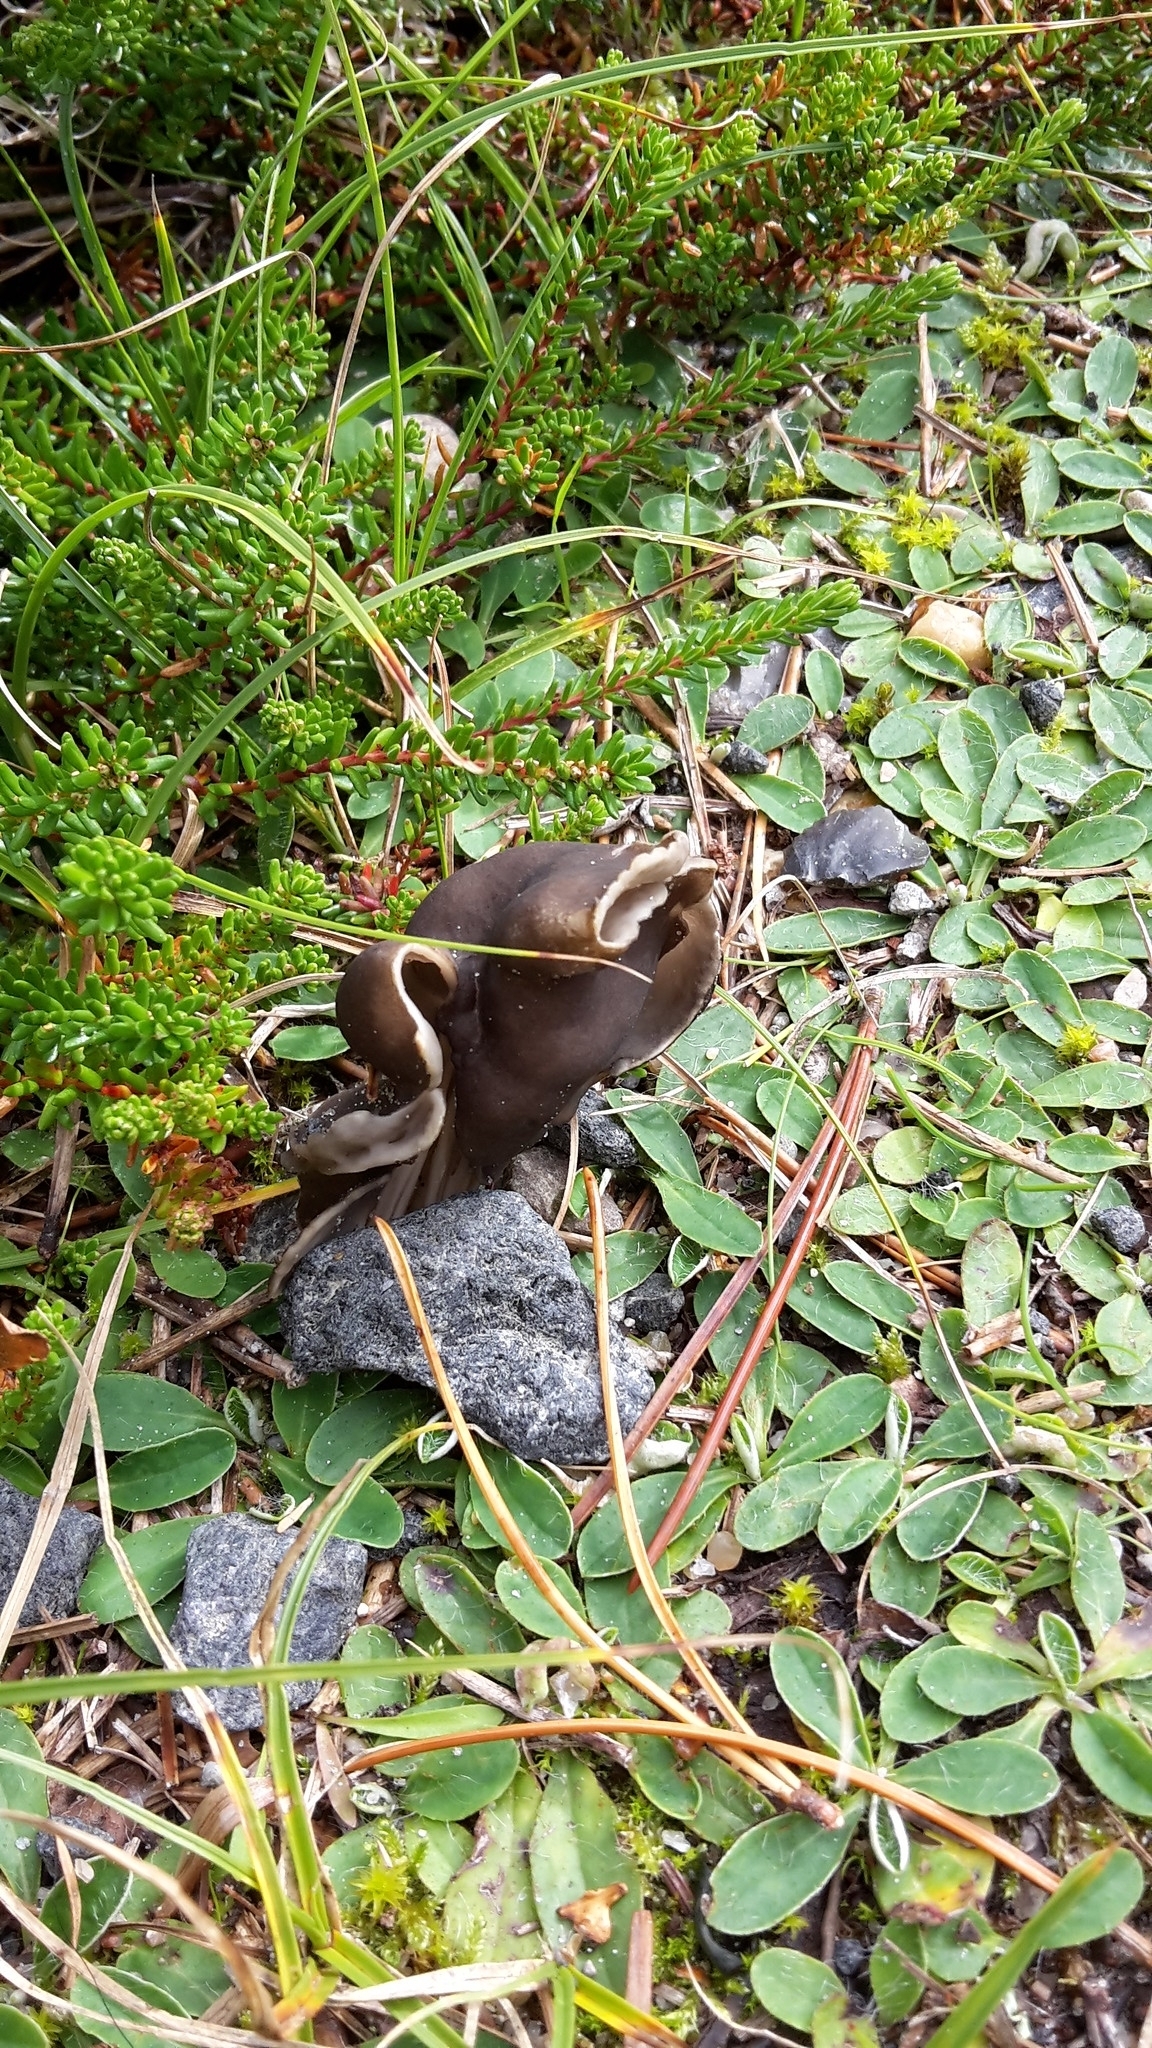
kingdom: Fungi
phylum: Ascomycota
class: Pezizomycetes
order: Pezizales
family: Helvellaceae
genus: Helvella
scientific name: Helvella lacunosa
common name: Elfin saddle
